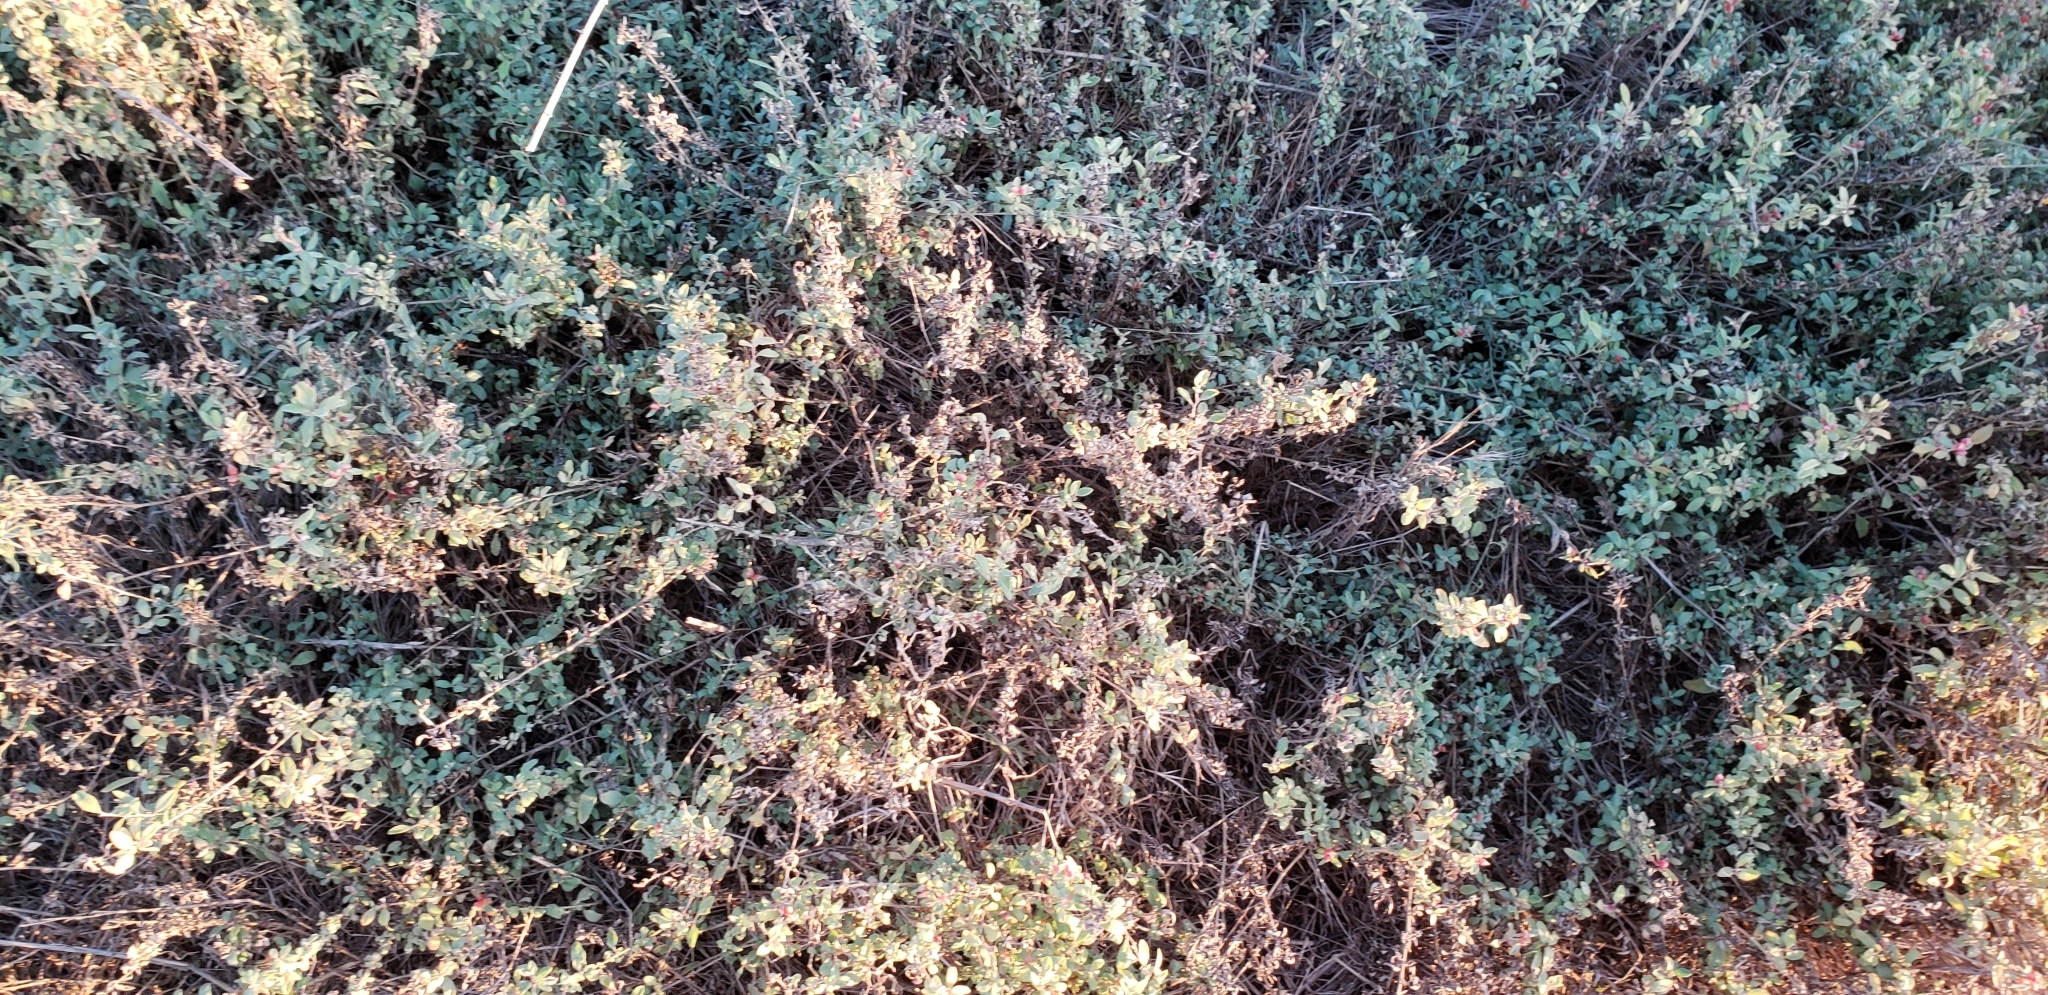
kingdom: Plantae
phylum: Tracheophyta
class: Magnoliopsida
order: Caryophyllales
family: Amaranthaceae
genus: Atriplex
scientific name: Atriplex semibaccata
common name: Australian saltbush
